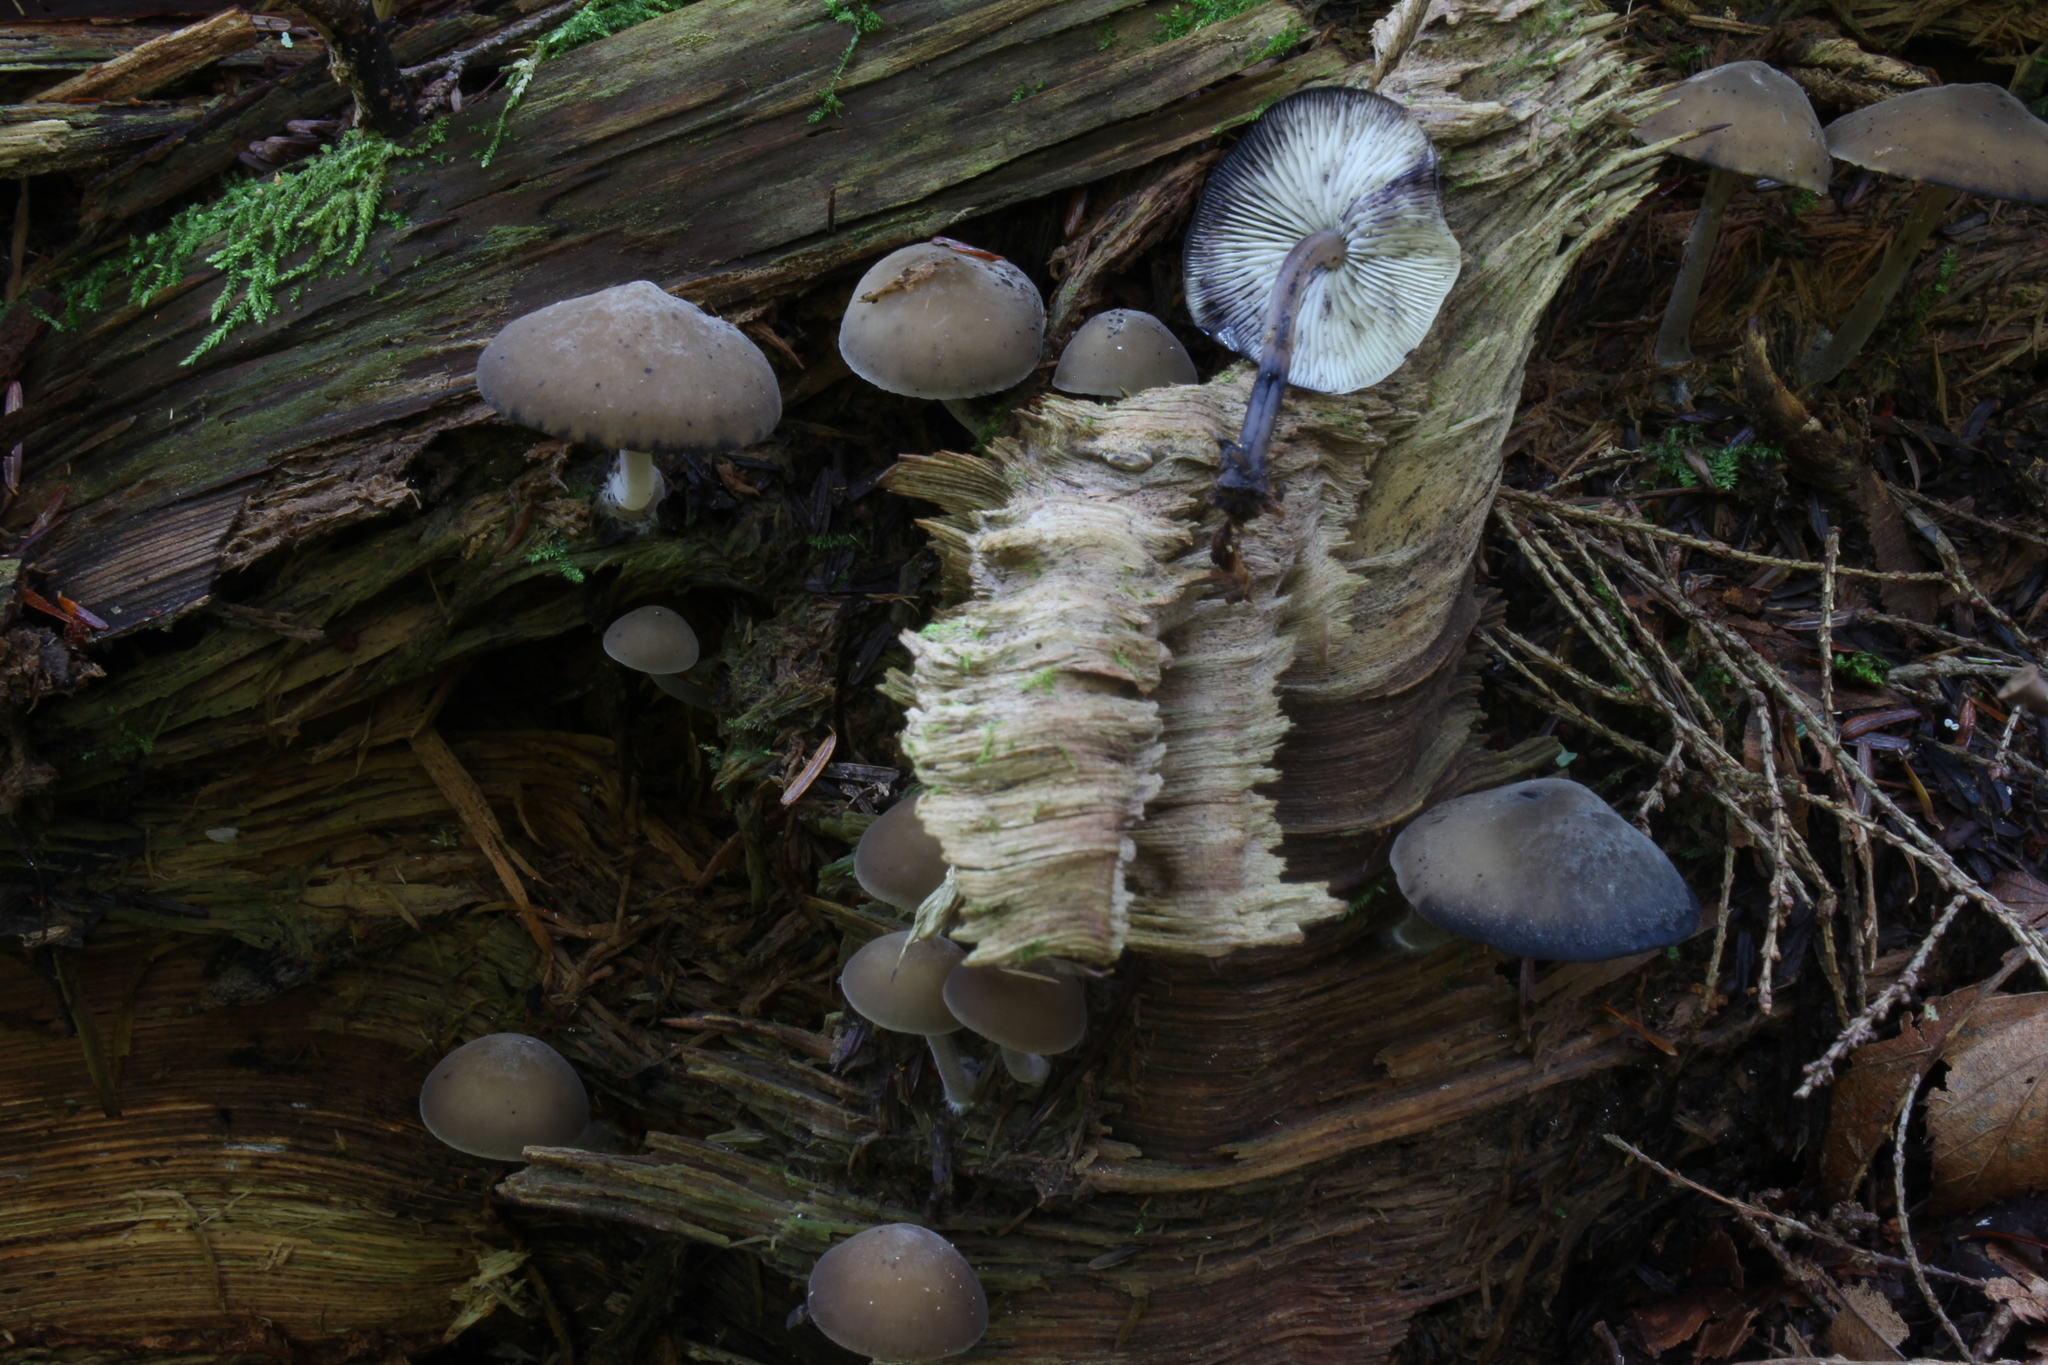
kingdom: Fungi
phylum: Basidiomycota
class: Agaricomycetes
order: Agaricales
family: Mycenaceae
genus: Hydropus
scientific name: Hydropus fuliginarius
